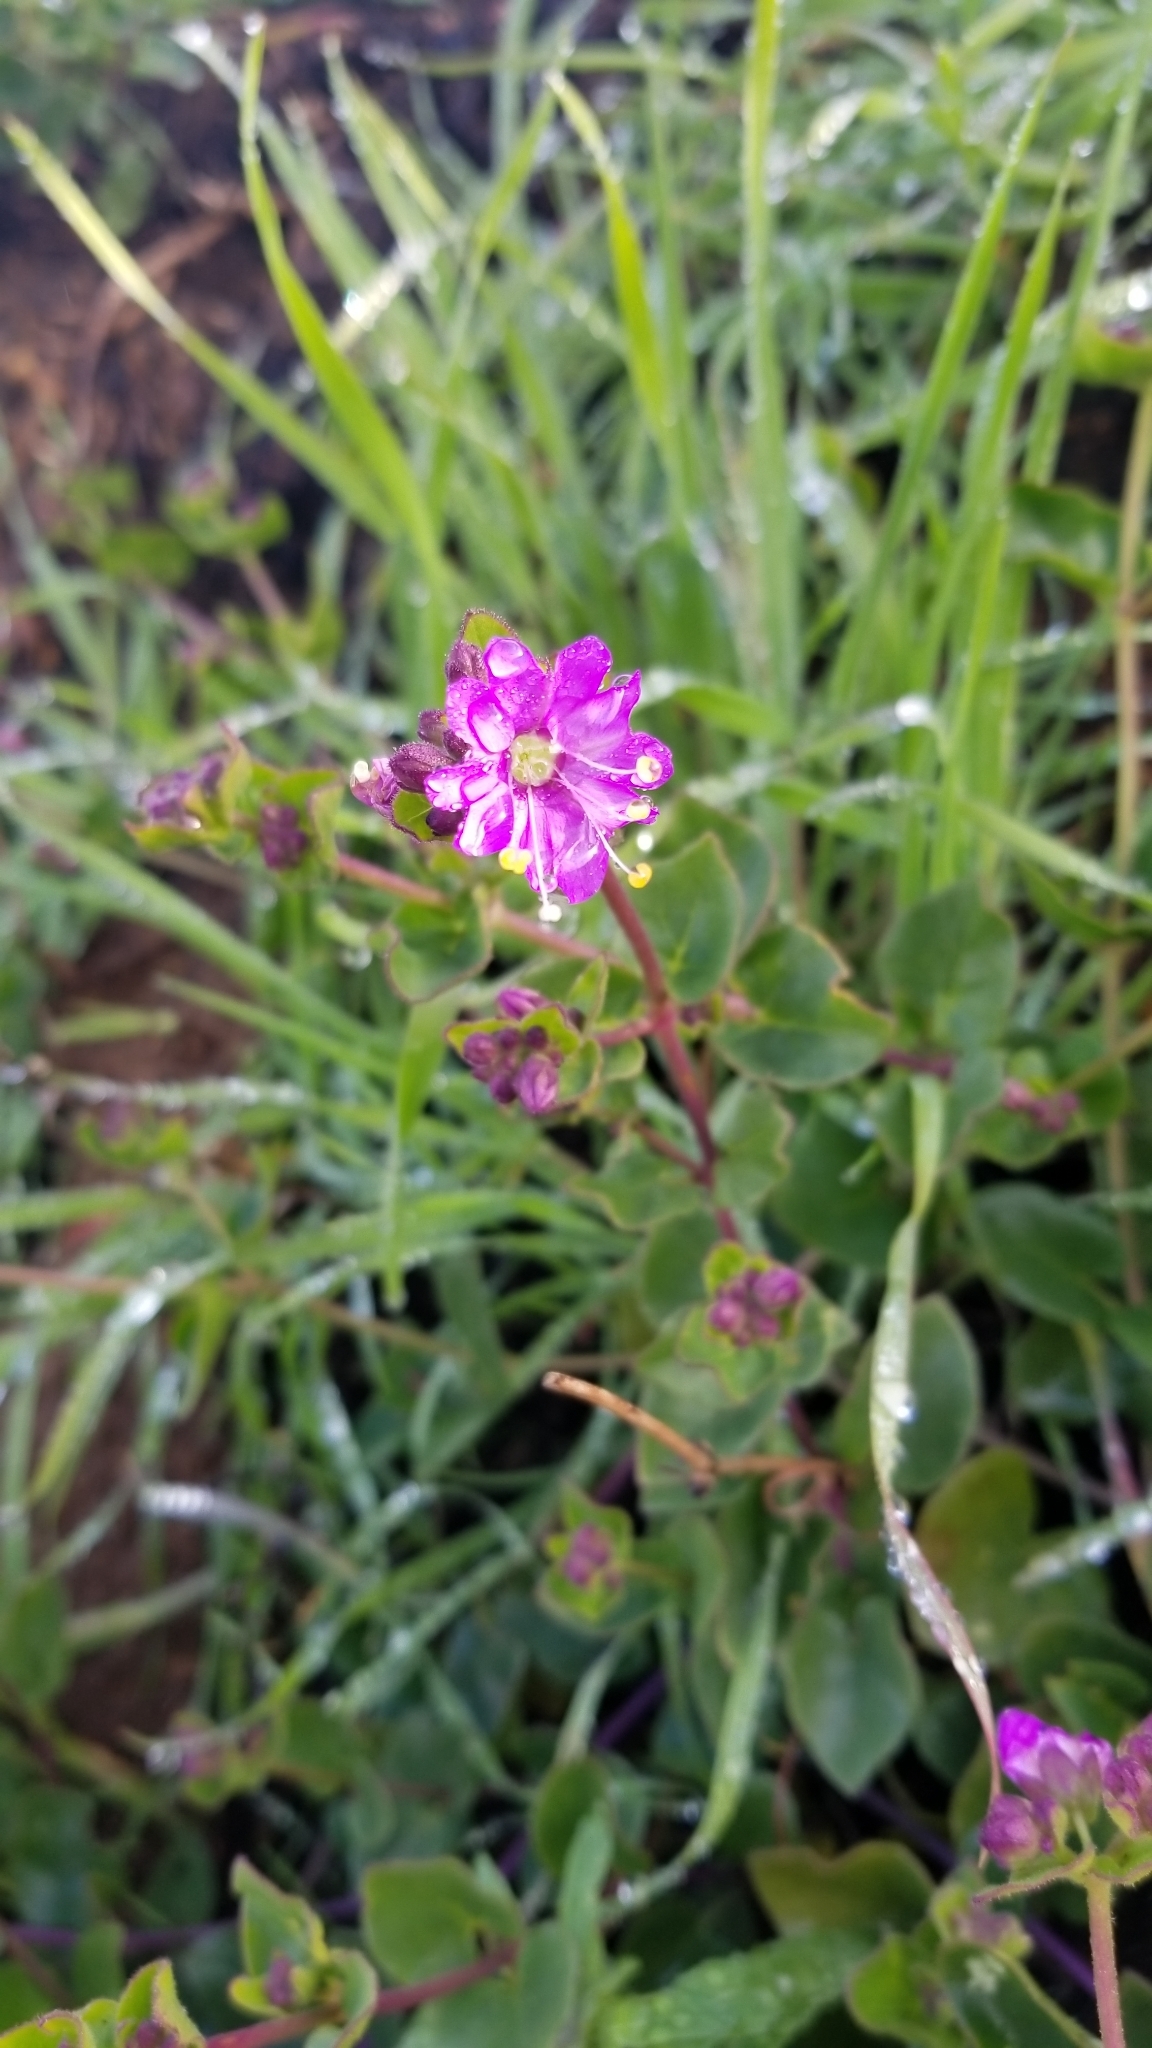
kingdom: Plantae
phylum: Tracheophyta
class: Magnoliopsida
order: Caryophyllales
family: Nyctaginaceae
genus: Mirabilis
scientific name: Mirabilis laevis
